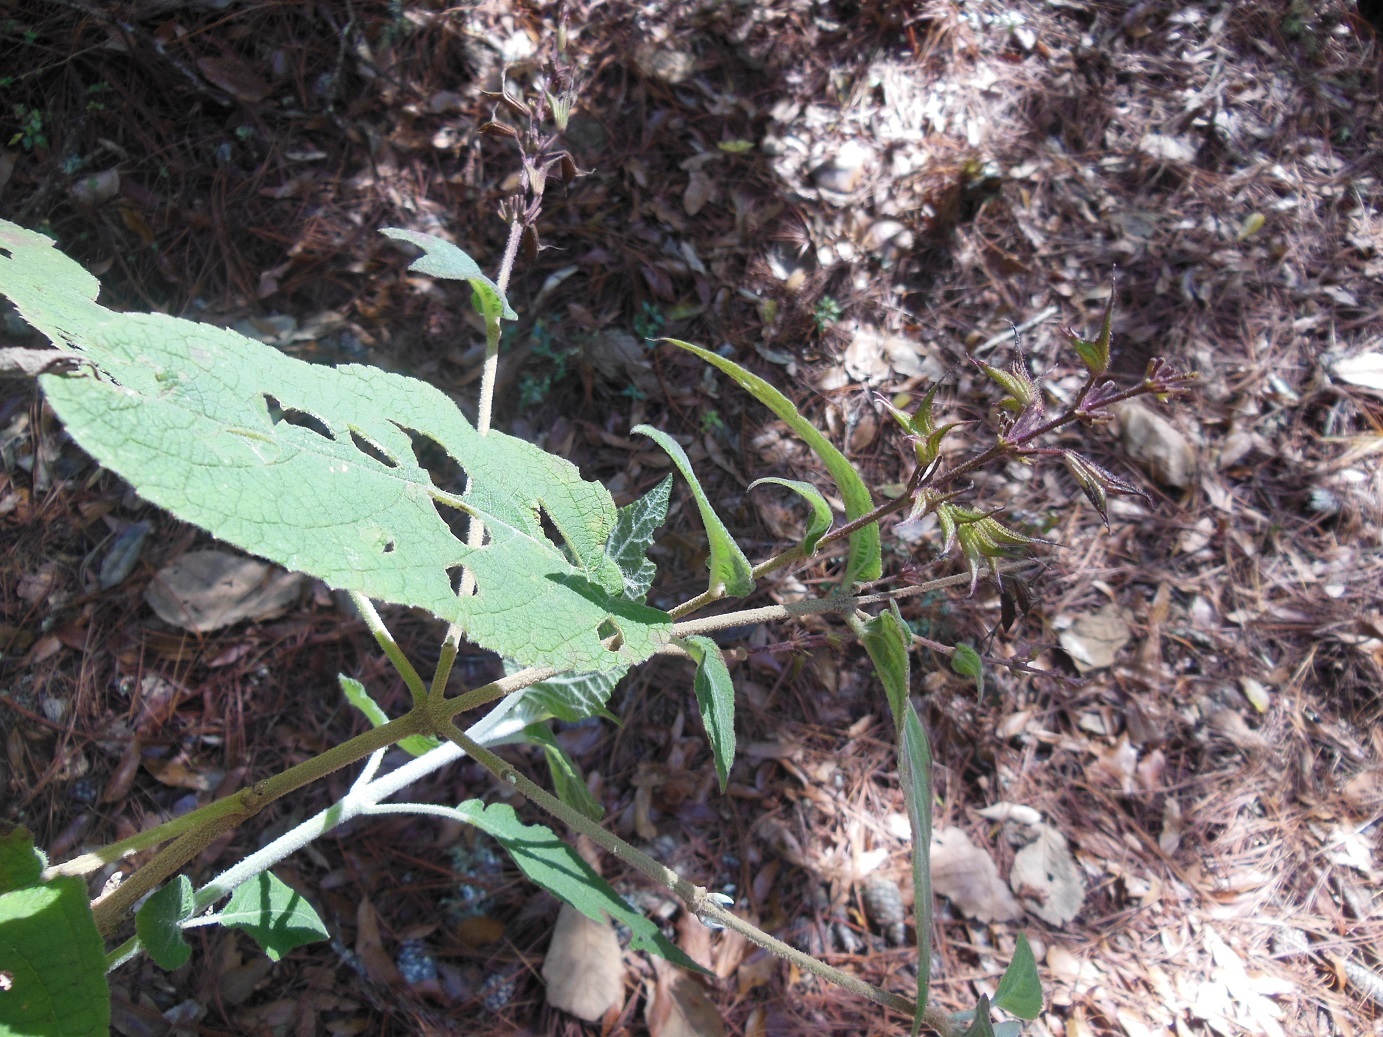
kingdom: Plantae
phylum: Tracheophyta
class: Magnoliopsida
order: Lamiales
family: Lamiaceae
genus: Salvia
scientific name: Salvia karwinskii
